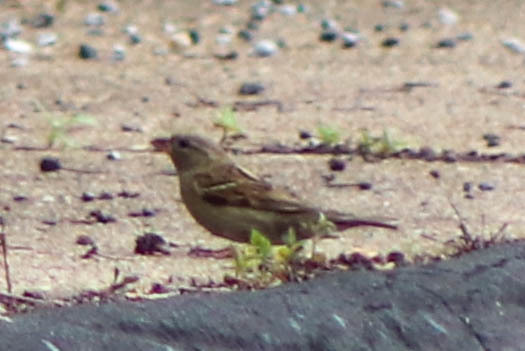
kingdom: Animalia
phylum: Chordata
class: Aves
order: Passeriformes
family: Passeridae
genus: Passer
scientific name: Passer domesticus
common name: House sparrow
